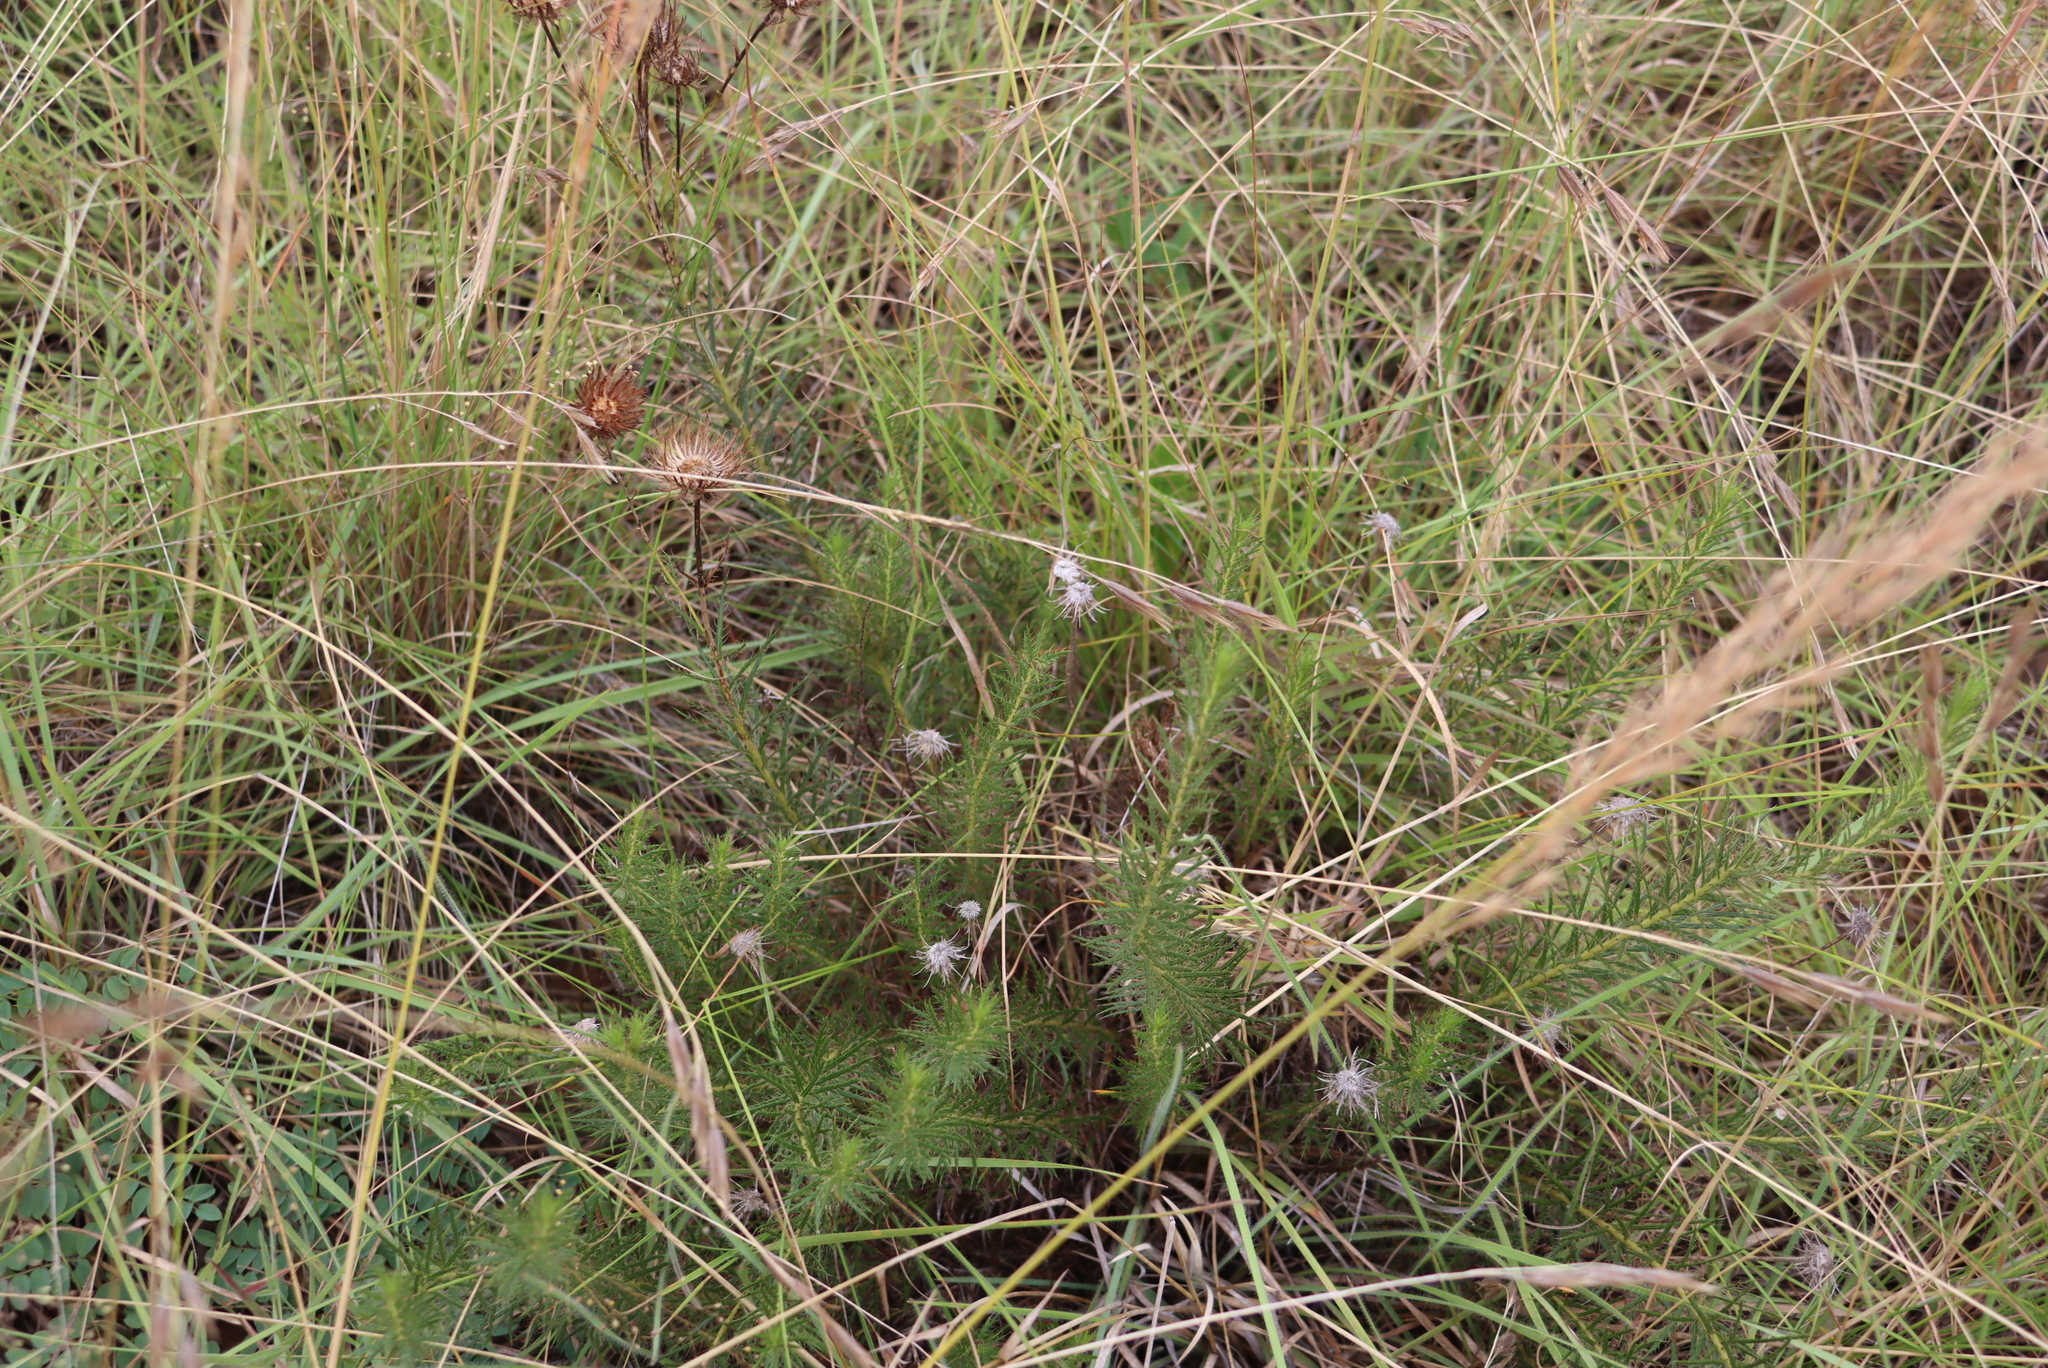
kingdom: Plantae
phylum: Tracheophyta
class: Magnoliopsida
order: Asterales
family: Asteraceae
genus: Berkheya
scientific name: Berkheya subulata
